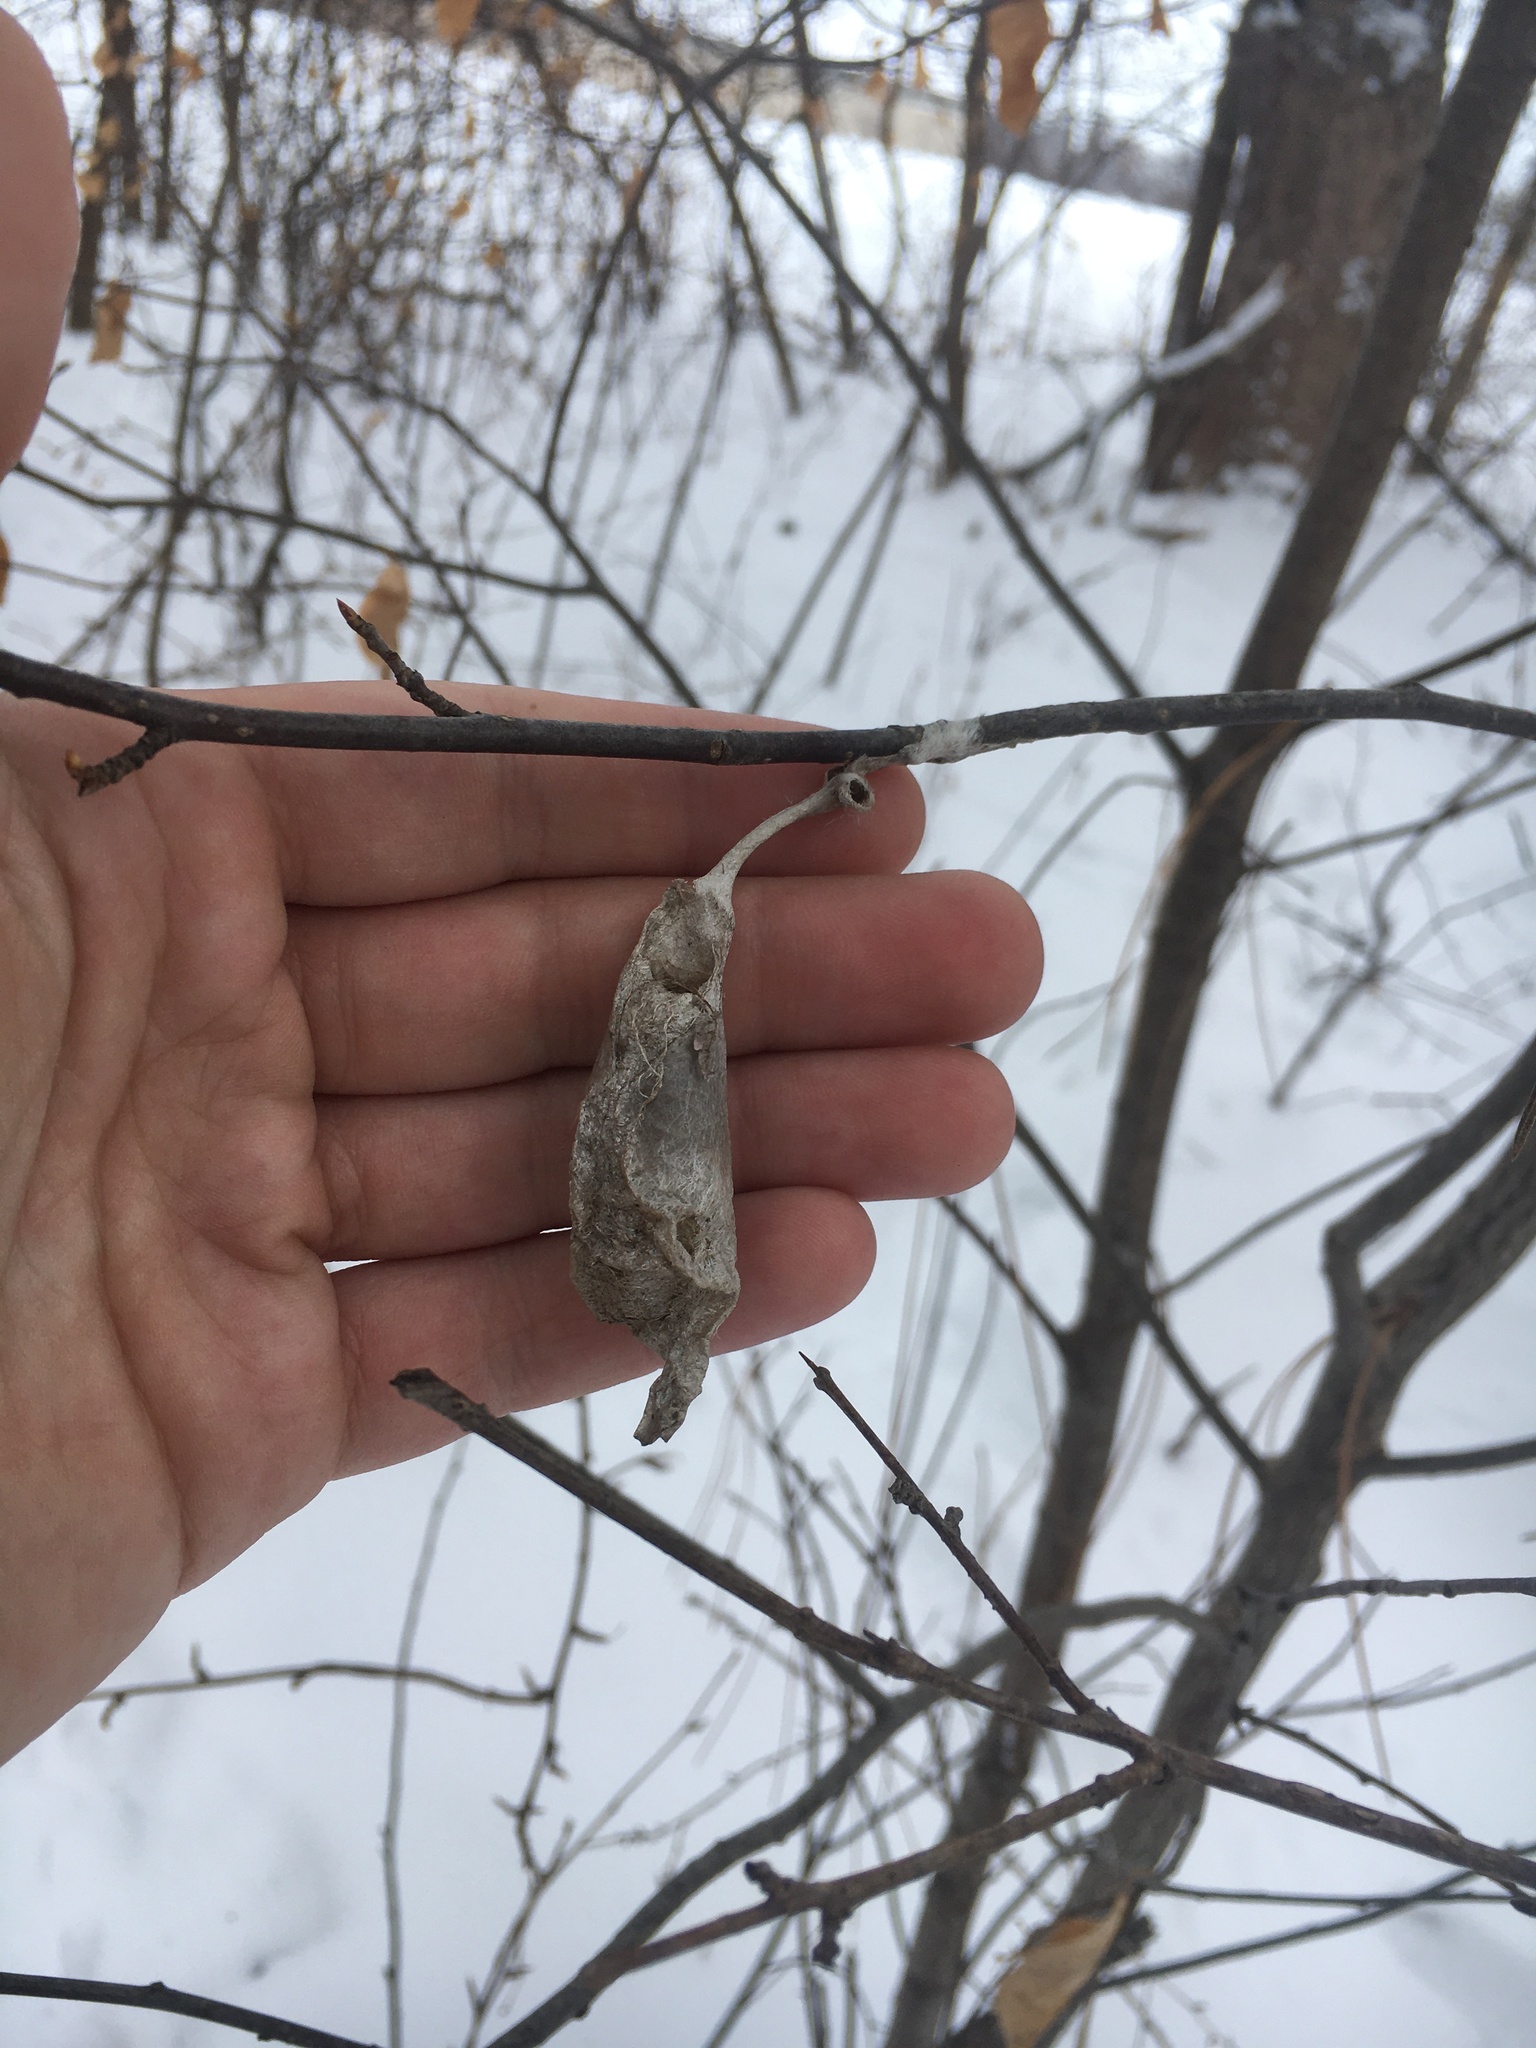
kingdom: Animalia
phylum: Arthropoda
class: Insecta
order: Lepidoptera
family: Saturniidae
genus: Callosamia
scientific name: Callosamia promethea
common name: Promethea silkmoth
